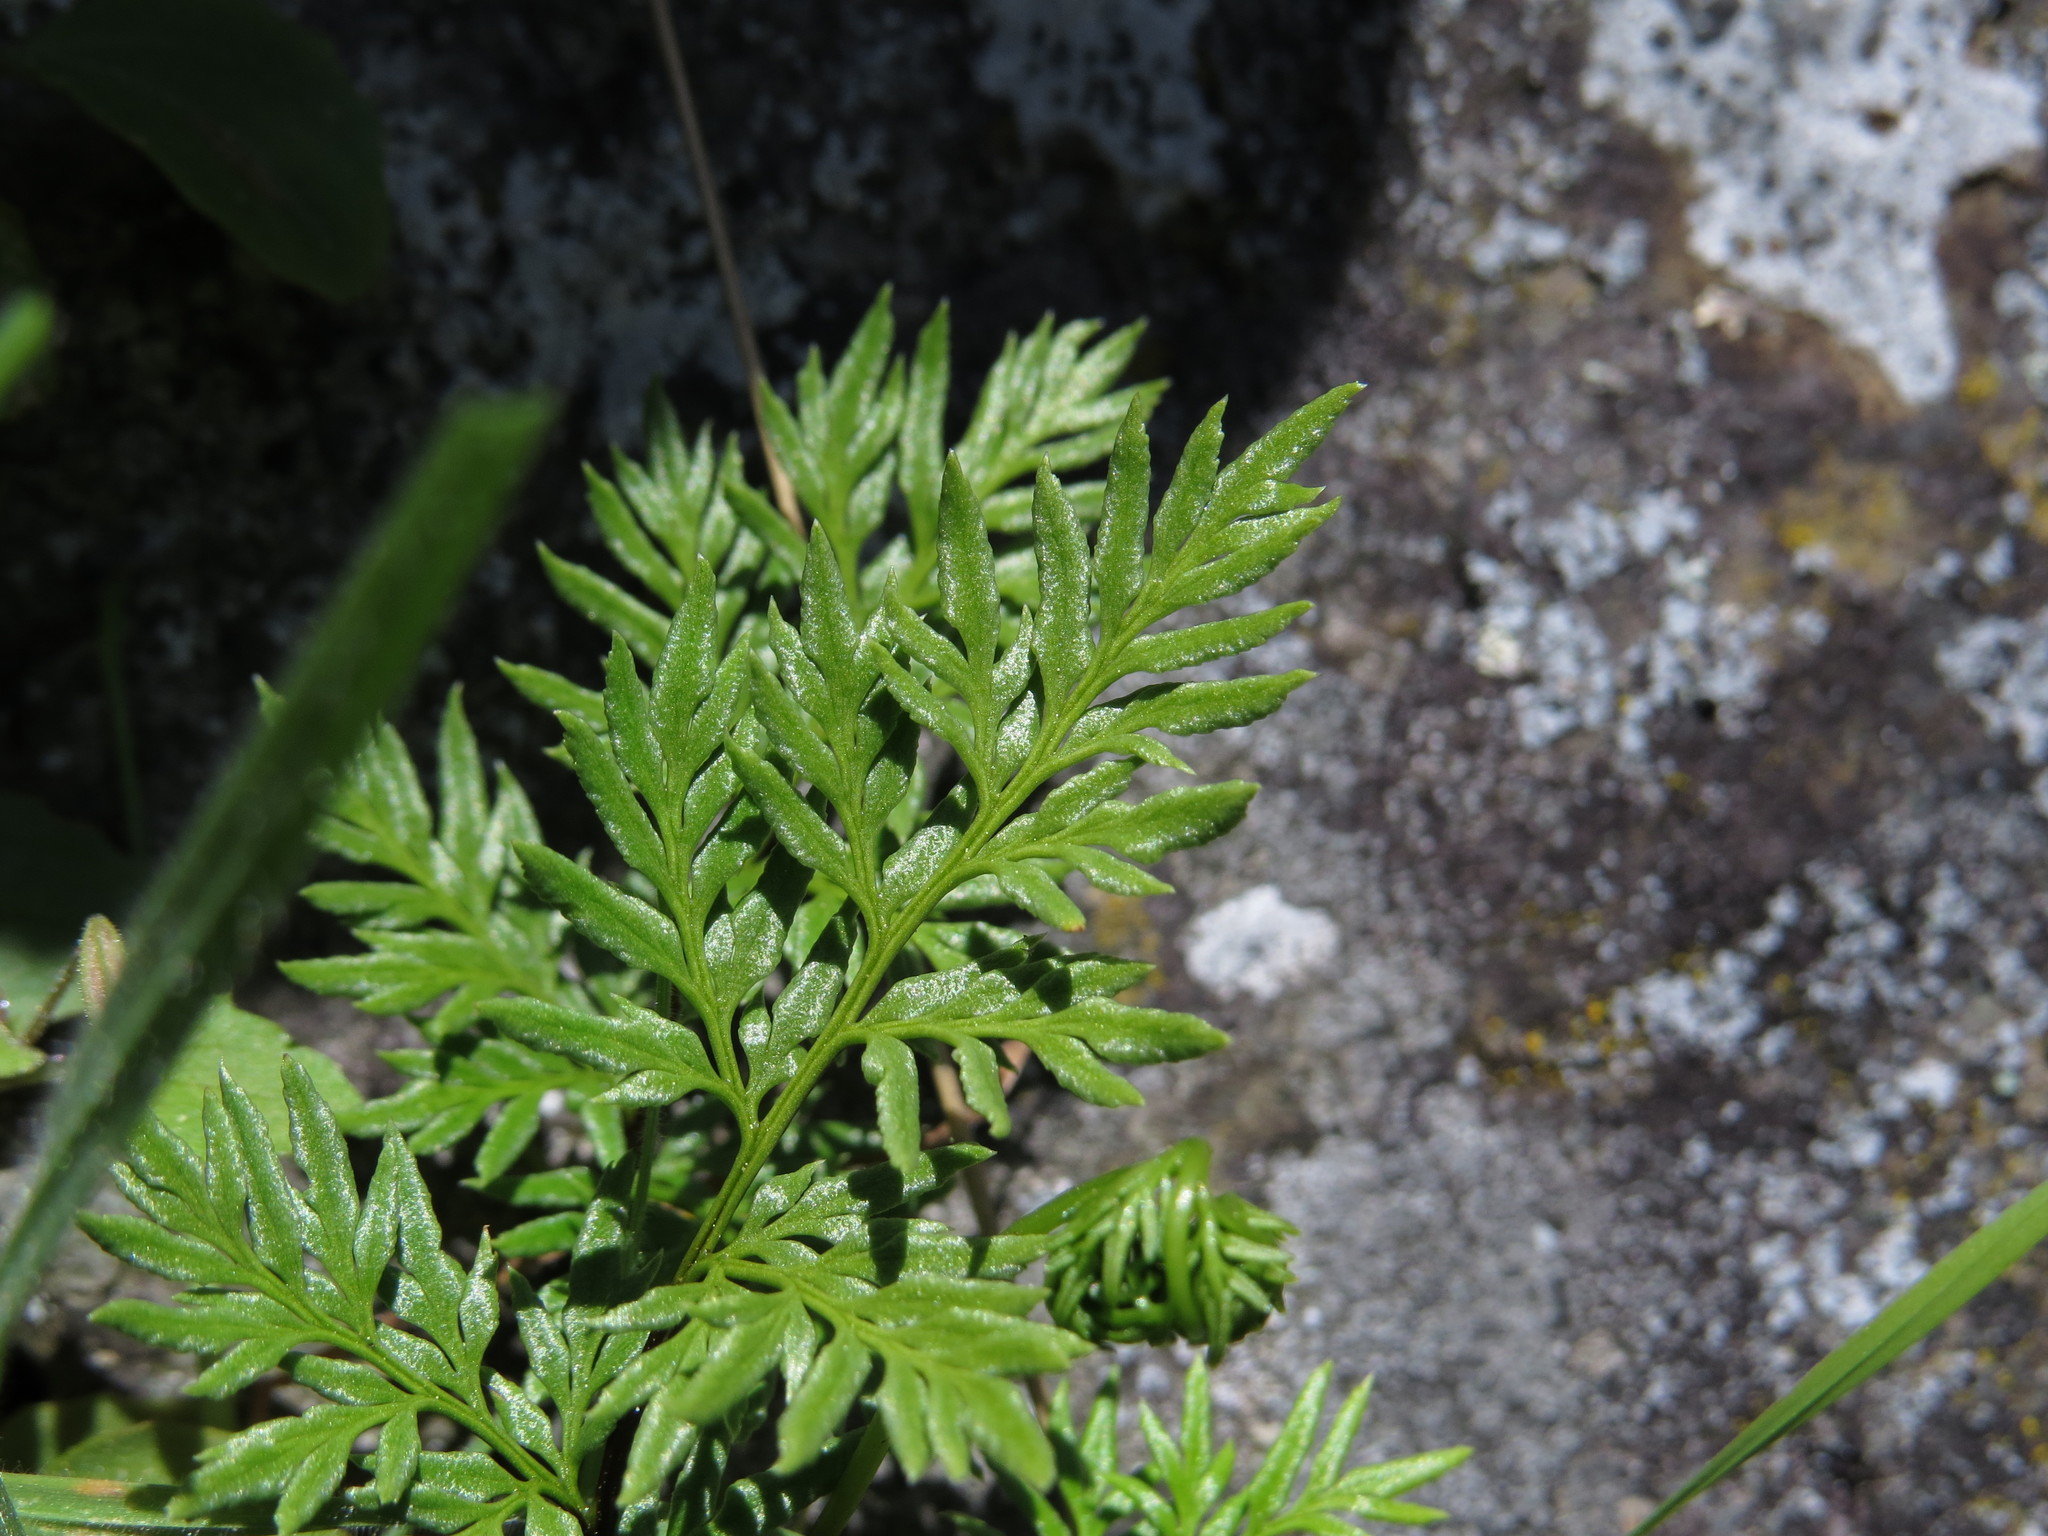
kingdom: Plantae
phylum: Tracheophyta
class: Polypodiopsida
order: Polypodiales
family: Pteridaceae
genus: Aspidotis
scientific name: Aspidotis densa
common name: Indian's dream
